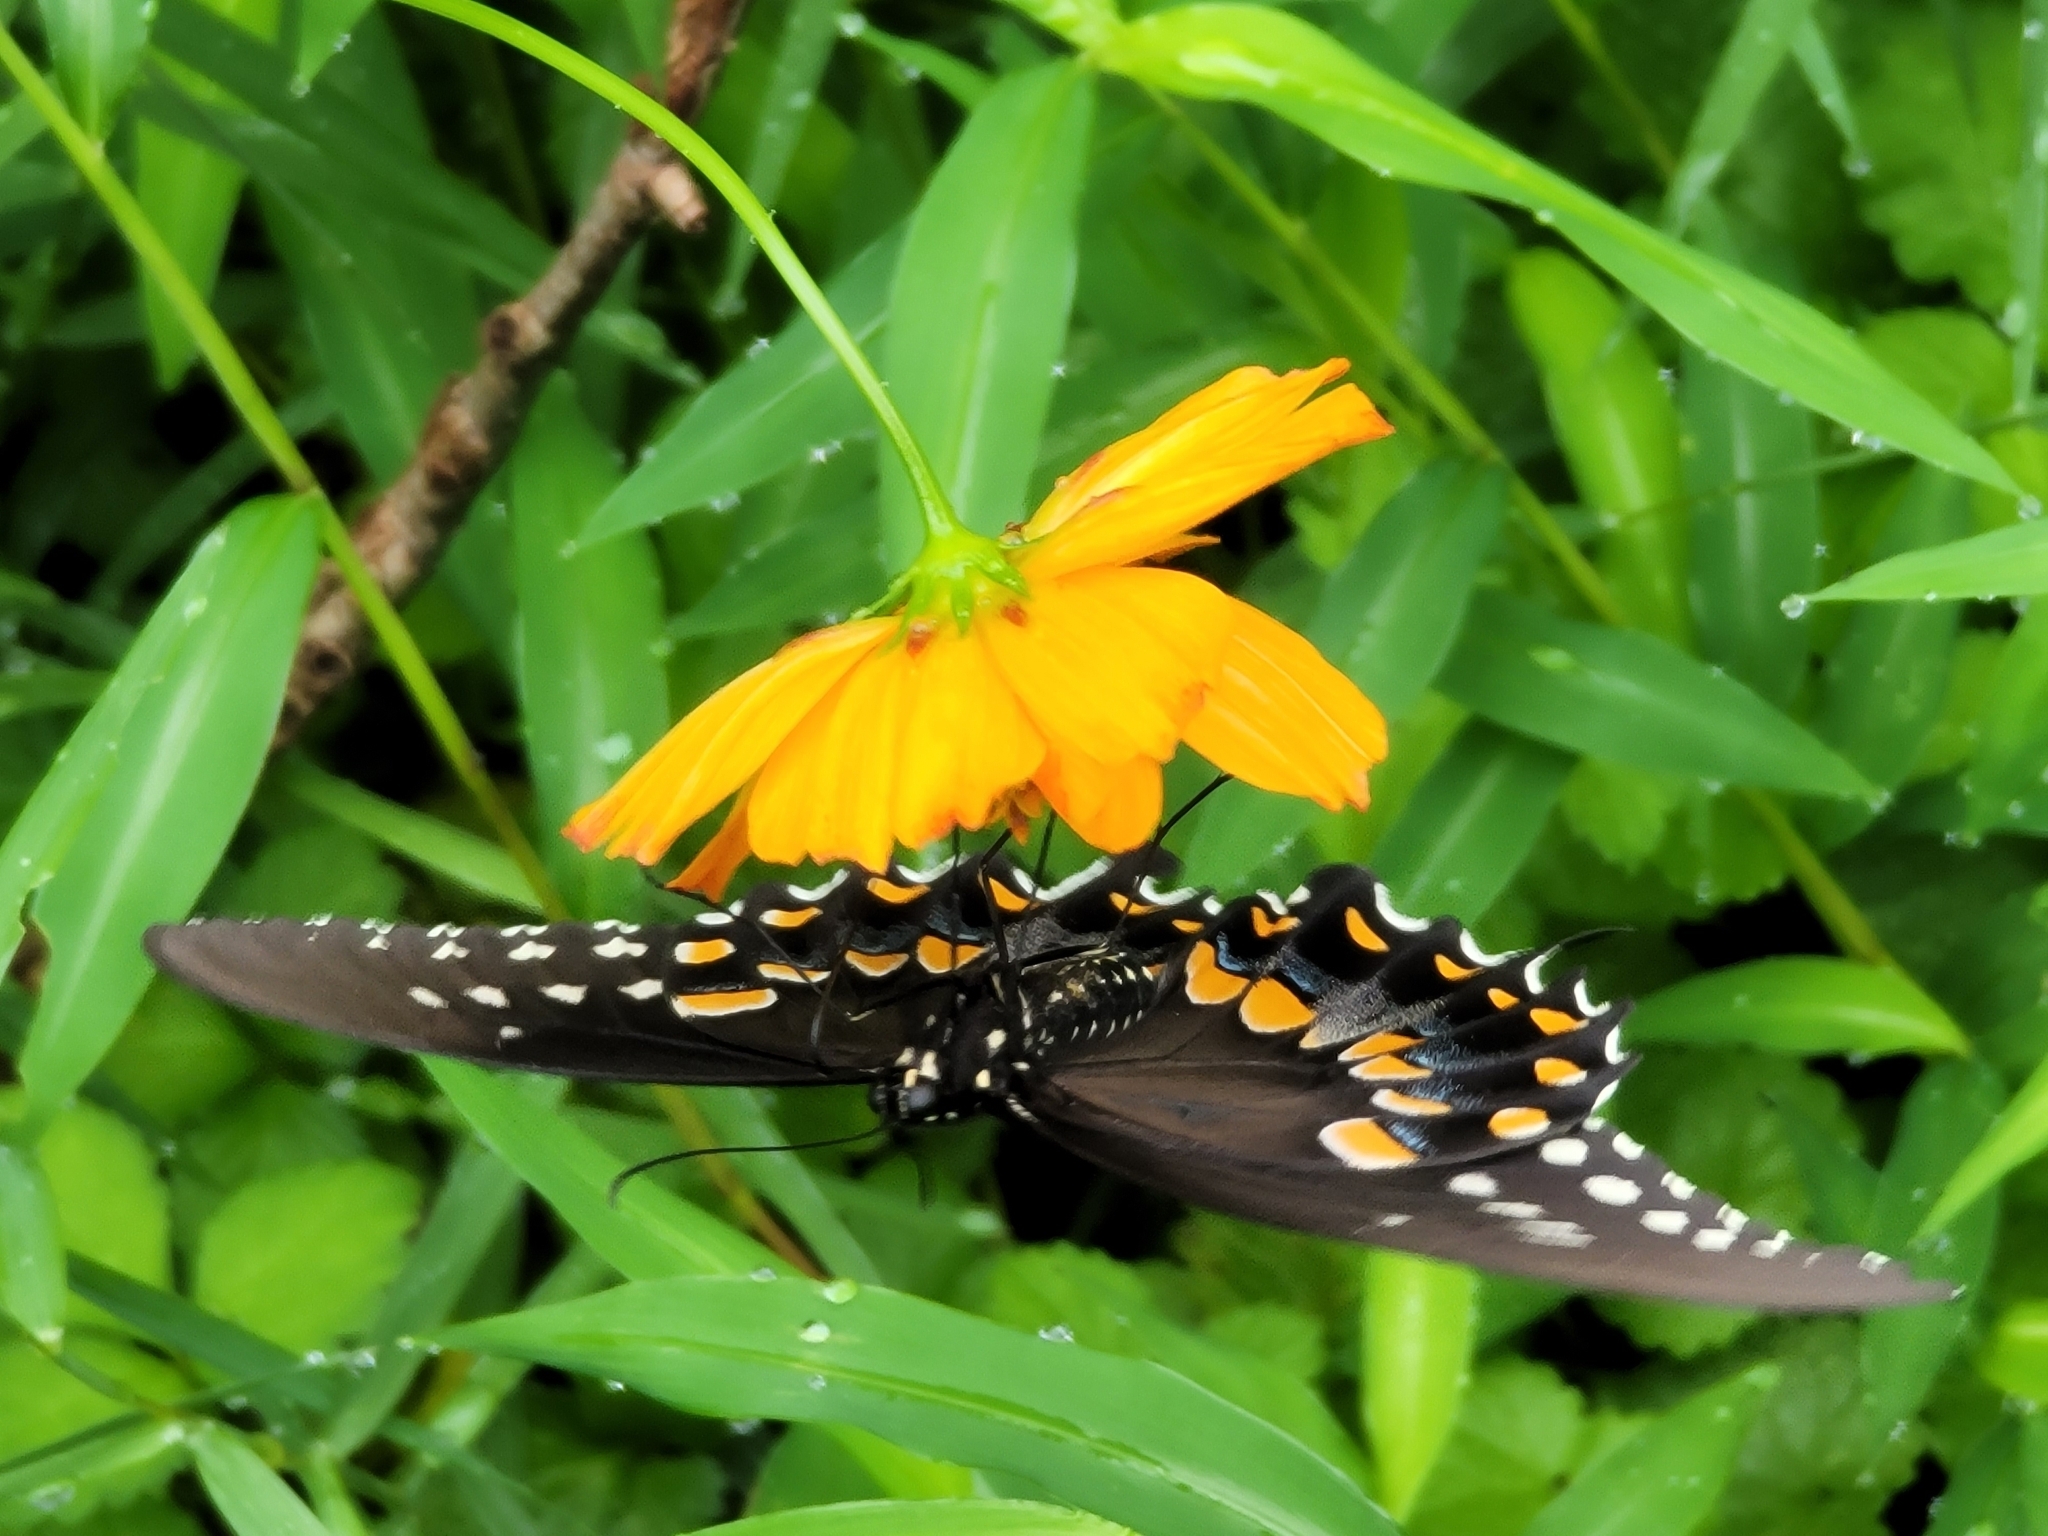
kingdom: Animalia
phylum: Arthropoda
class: Insecta
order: Lepidoptera
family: Papilionidae
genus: Papilio
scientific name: Papilio troilus
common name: Spicebush swallowtail
